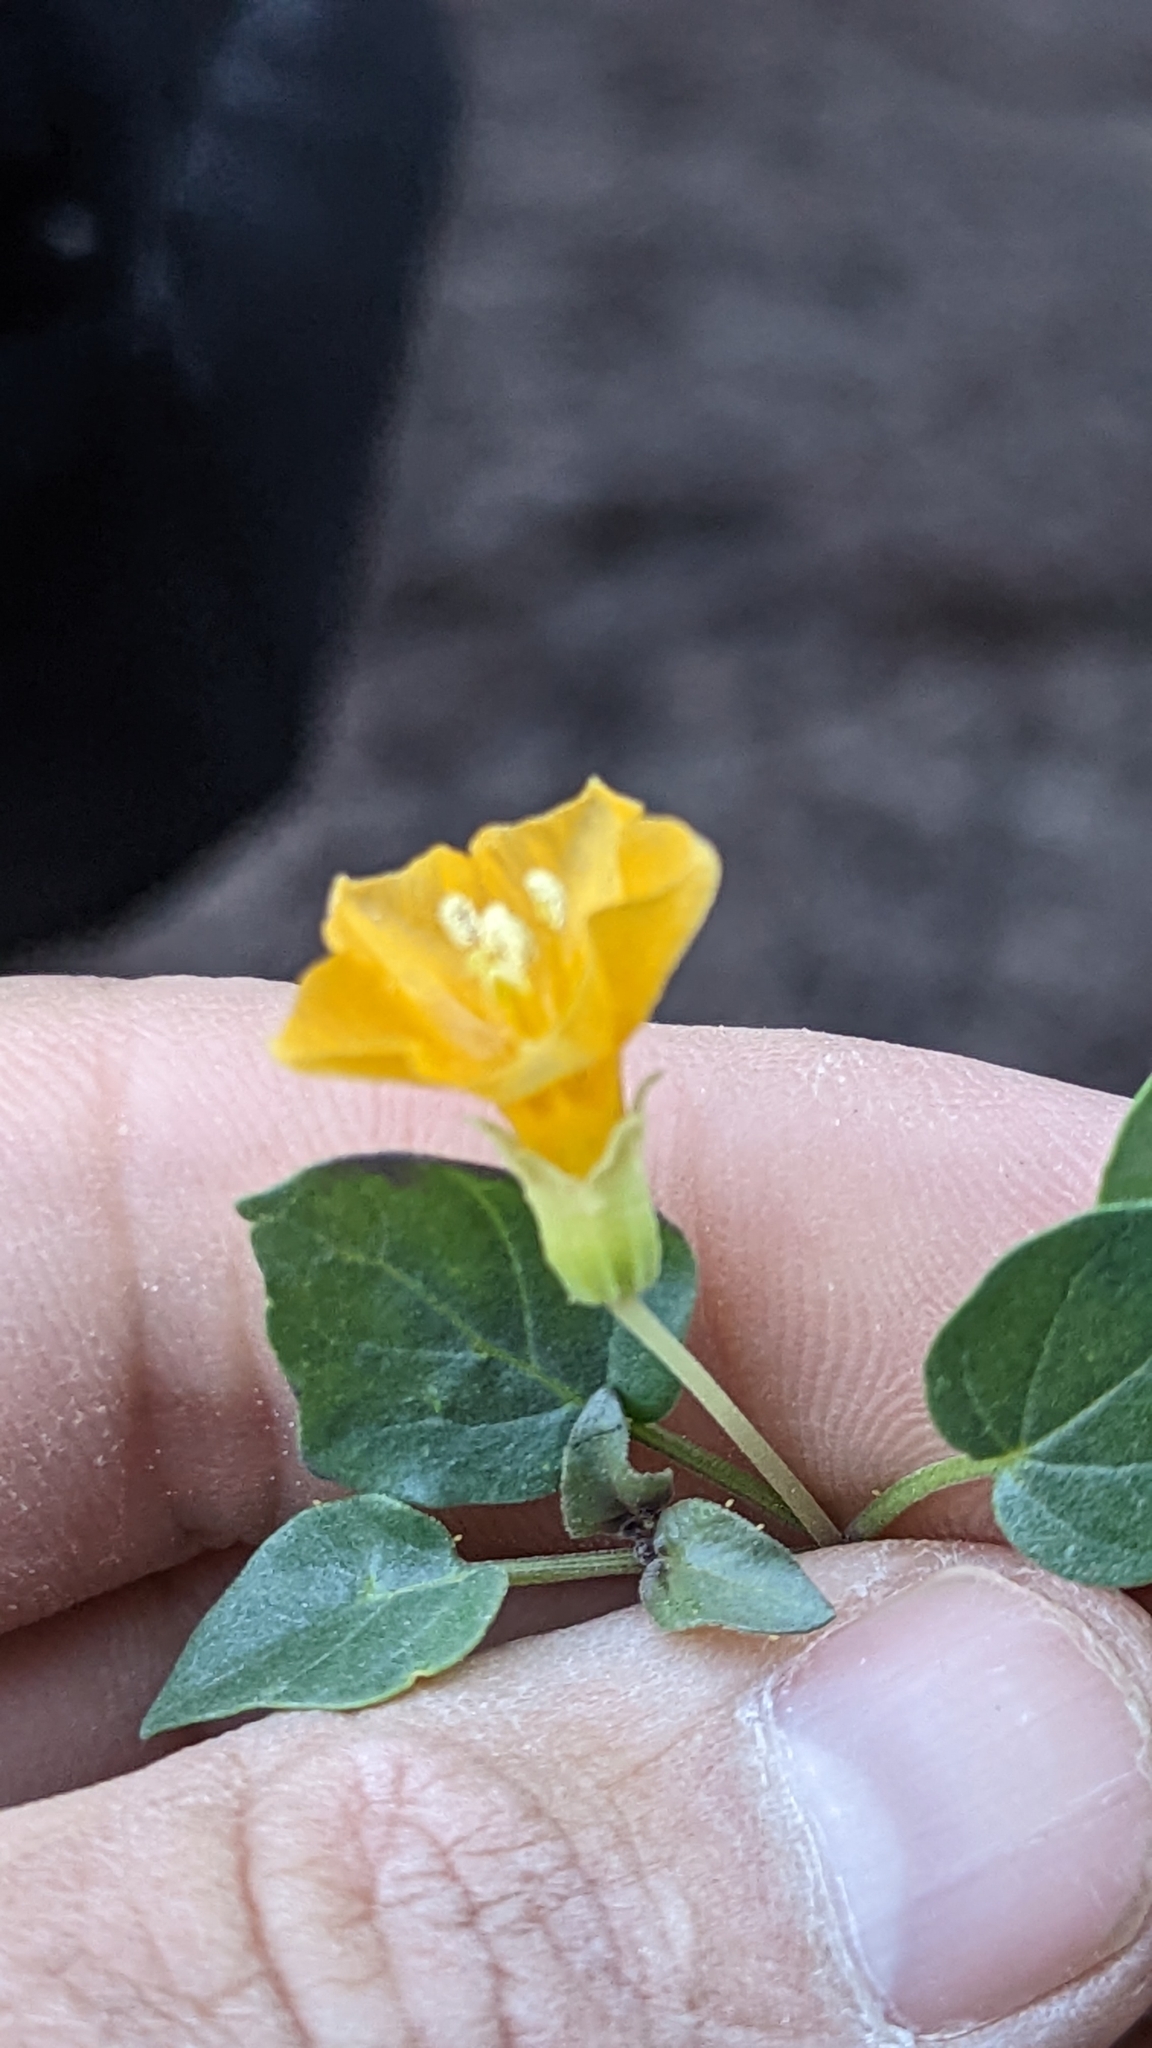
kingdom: Plantae
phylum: Tracheophyta
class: Magnoliopsida
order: Solanales
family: Solanaceae
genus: Physalis
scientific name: Physalis crassifolia
